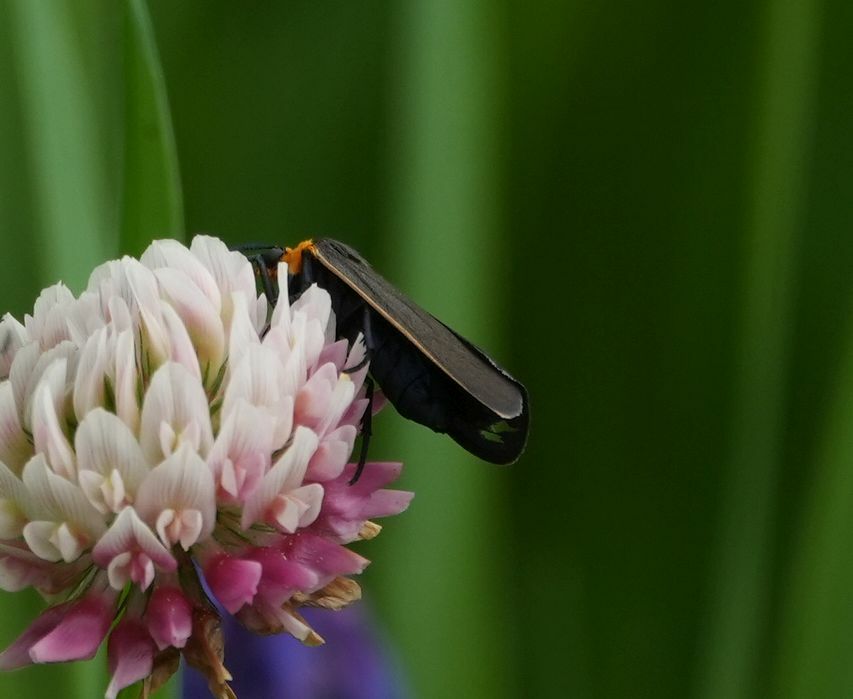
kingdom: Animalia
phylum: Arthropoda
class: Insecta
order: Lepidoptera
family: Erebidae
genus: Cisseps
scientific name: Cisseps fulvicollis
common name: Yellow-collared scape moth
